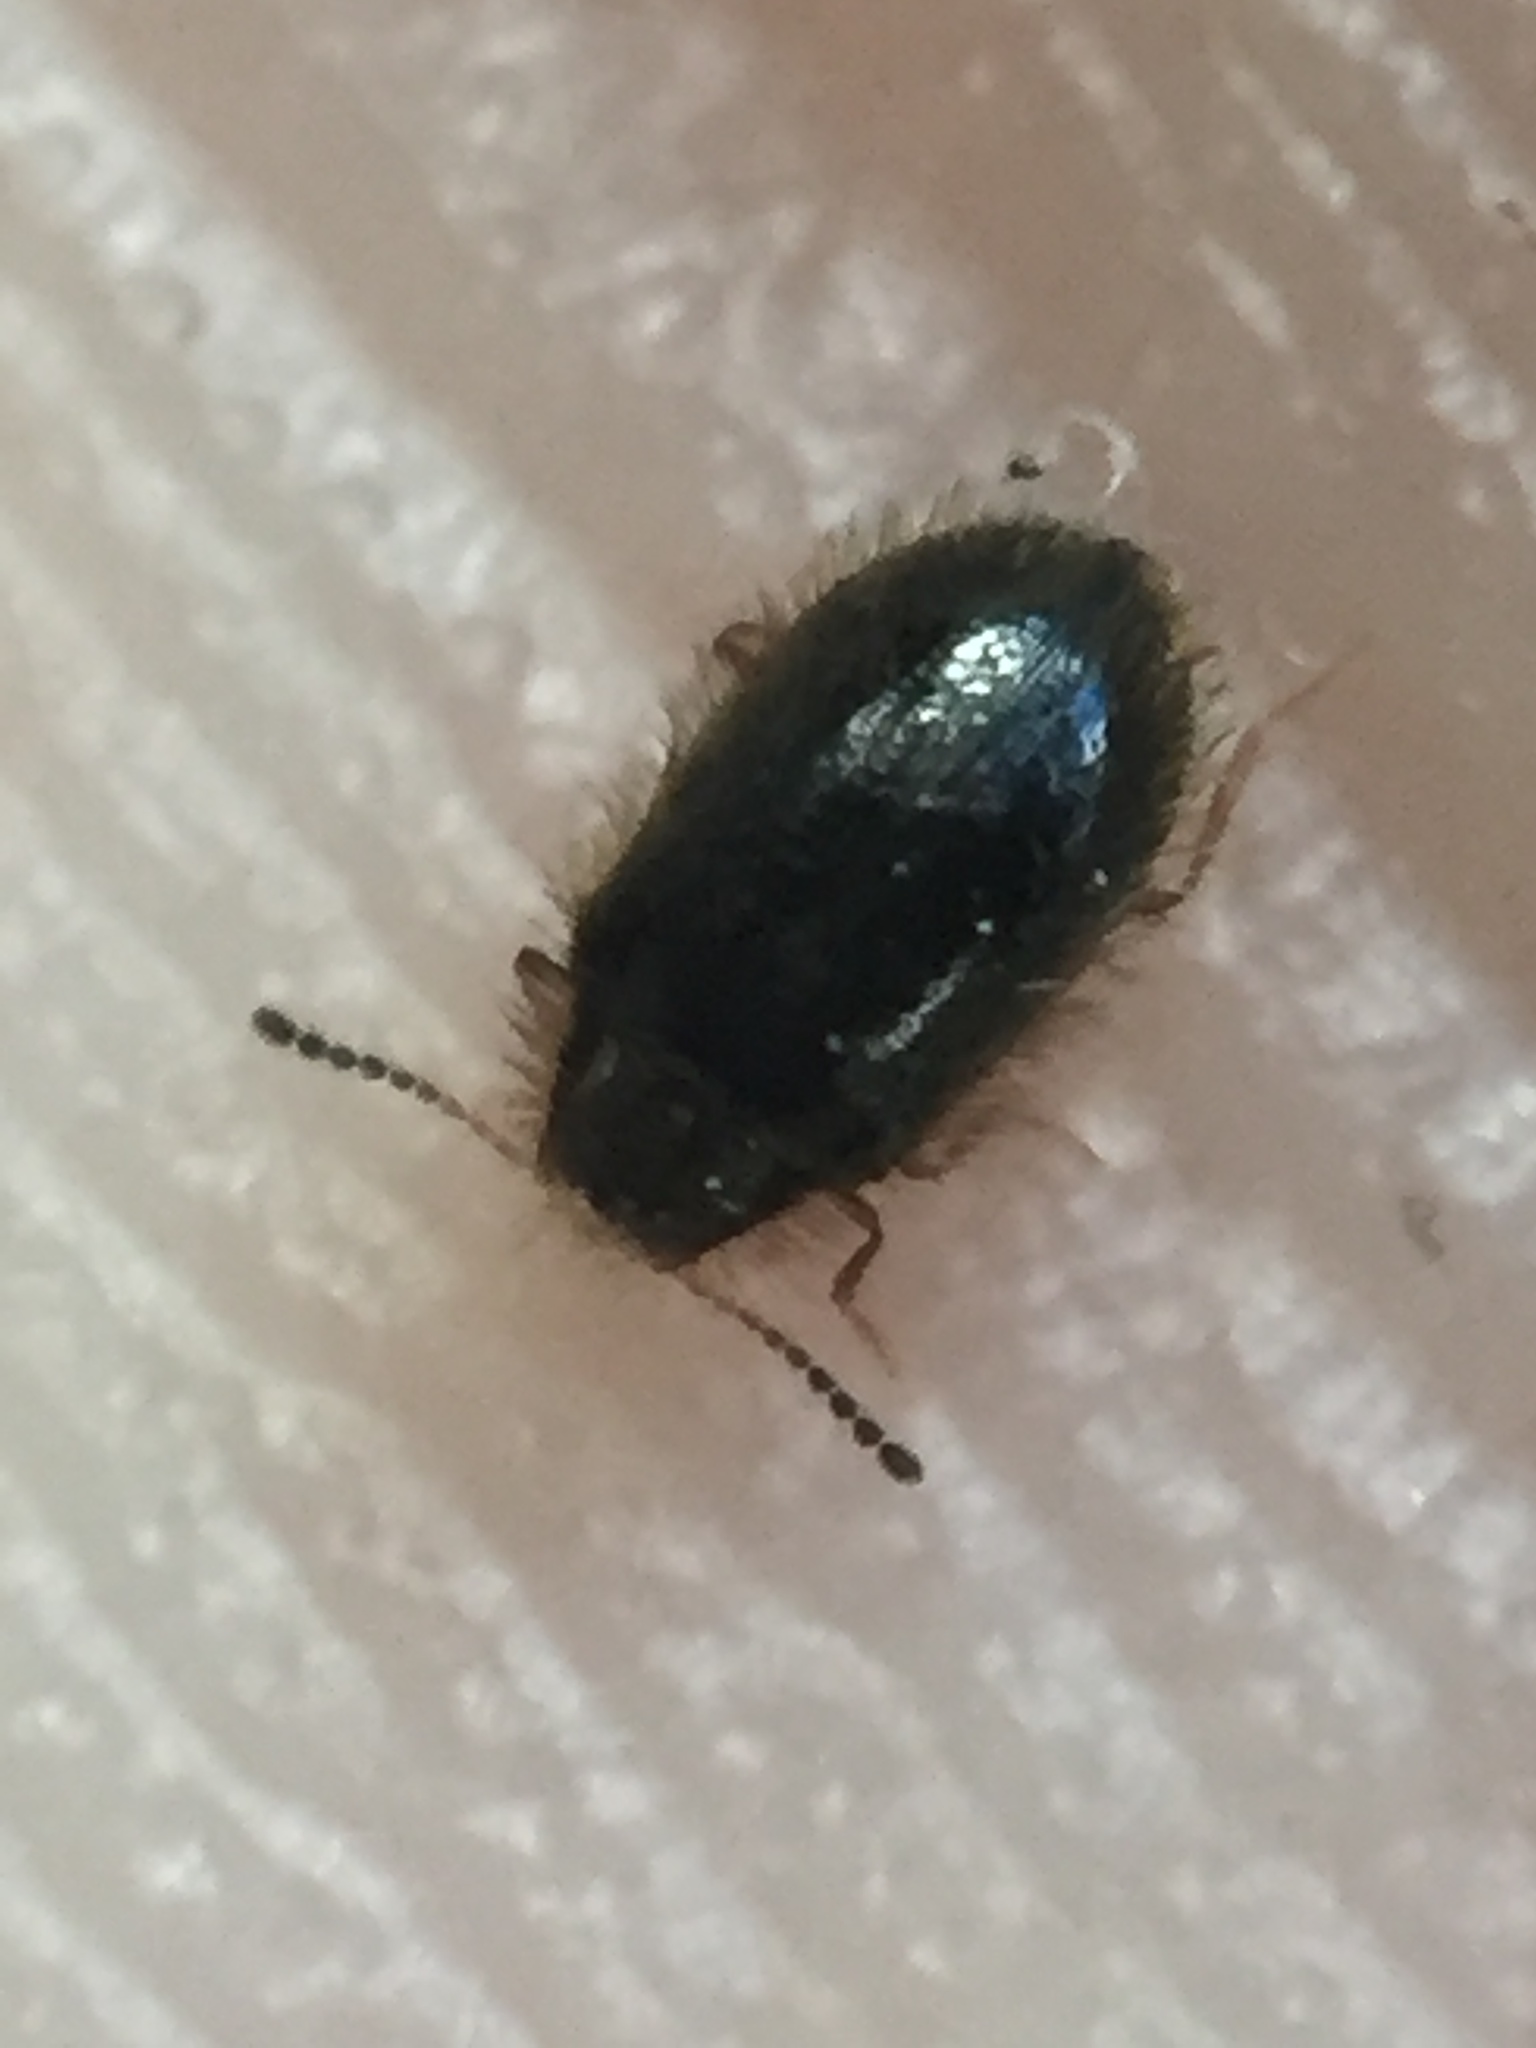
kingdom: Animalia
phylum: Arthropoda
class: Insecta
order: Coleoptera
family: Dermestidae
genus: Hexanodes
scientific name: Hexanodes
